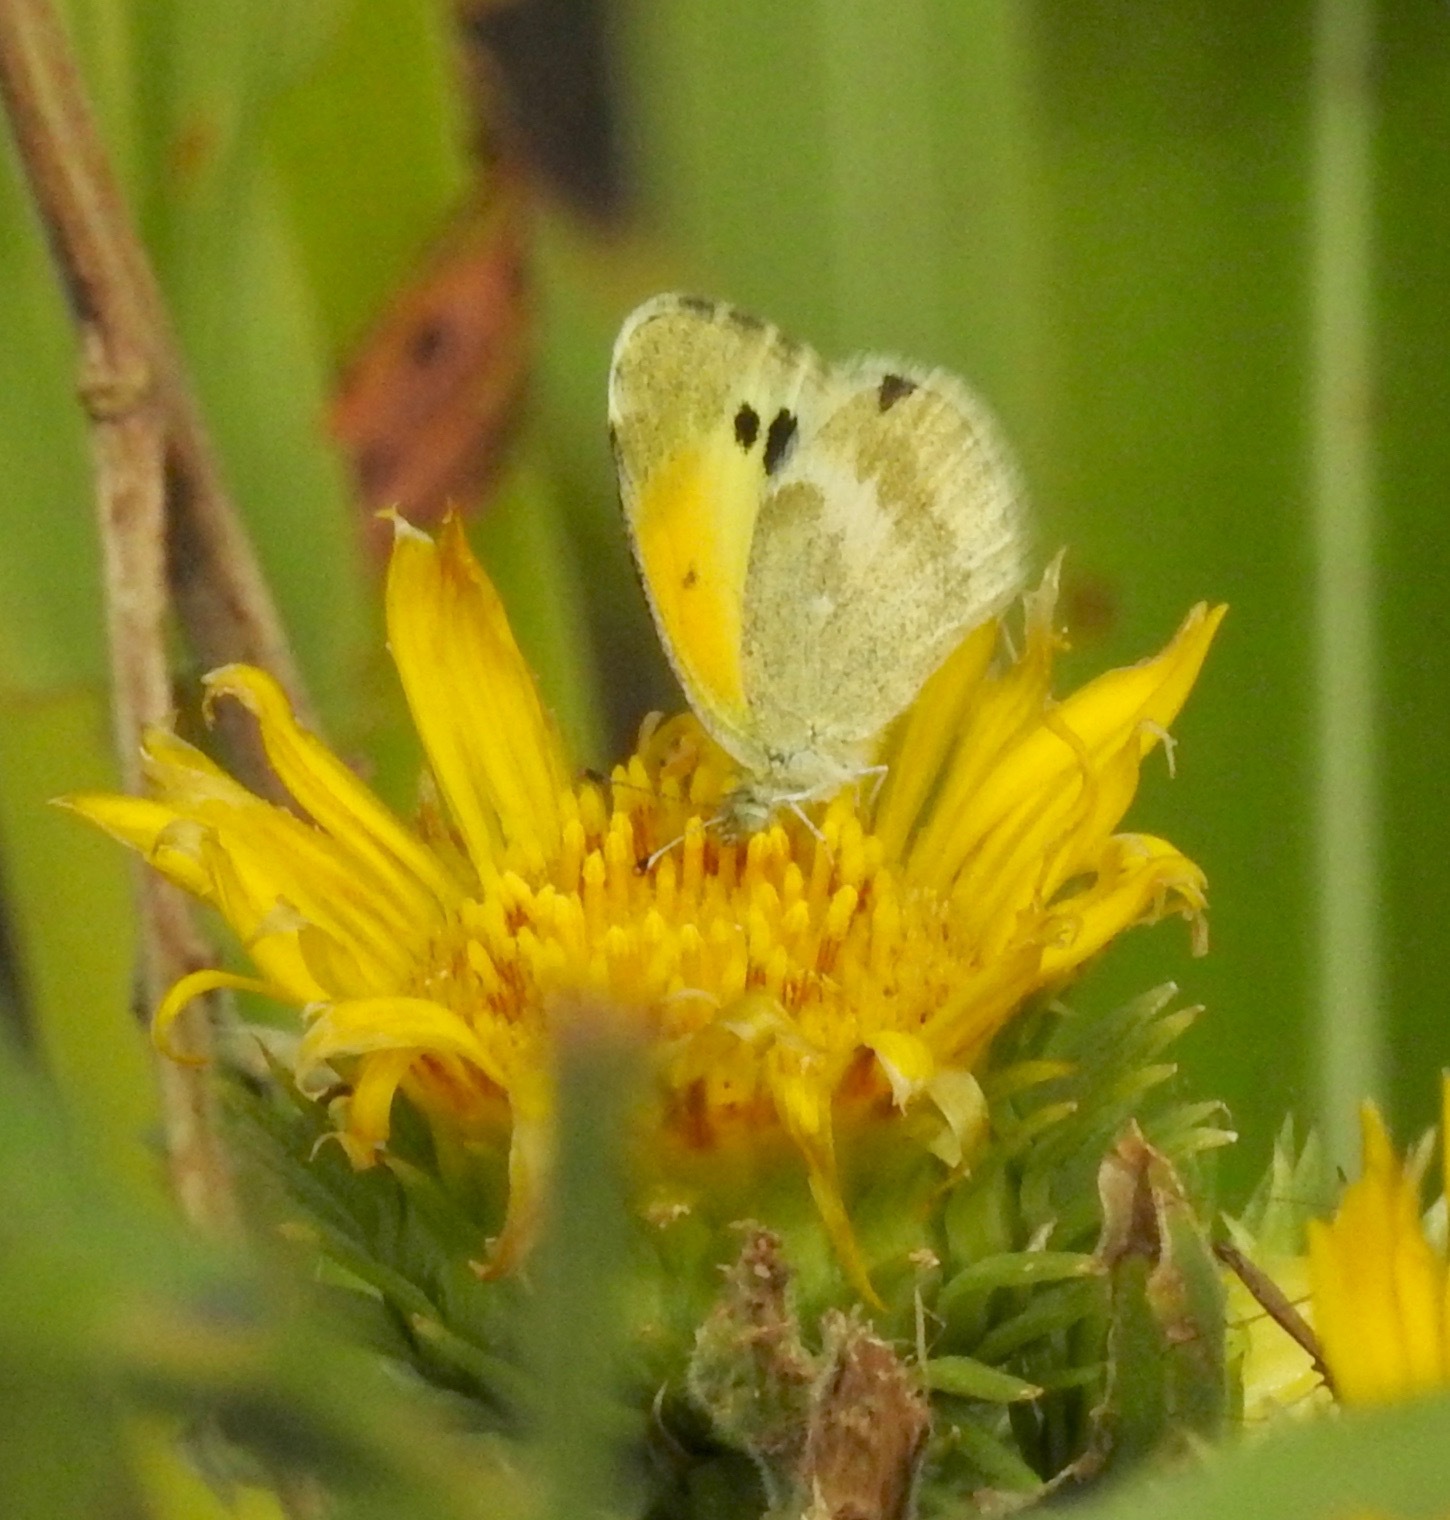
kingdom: Animalia
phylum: Arthropoda
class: Insecta
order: Lepidoptera
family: Pieridae
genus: Nathalis
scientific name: Nathalis iole
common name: Dainty sulphur
